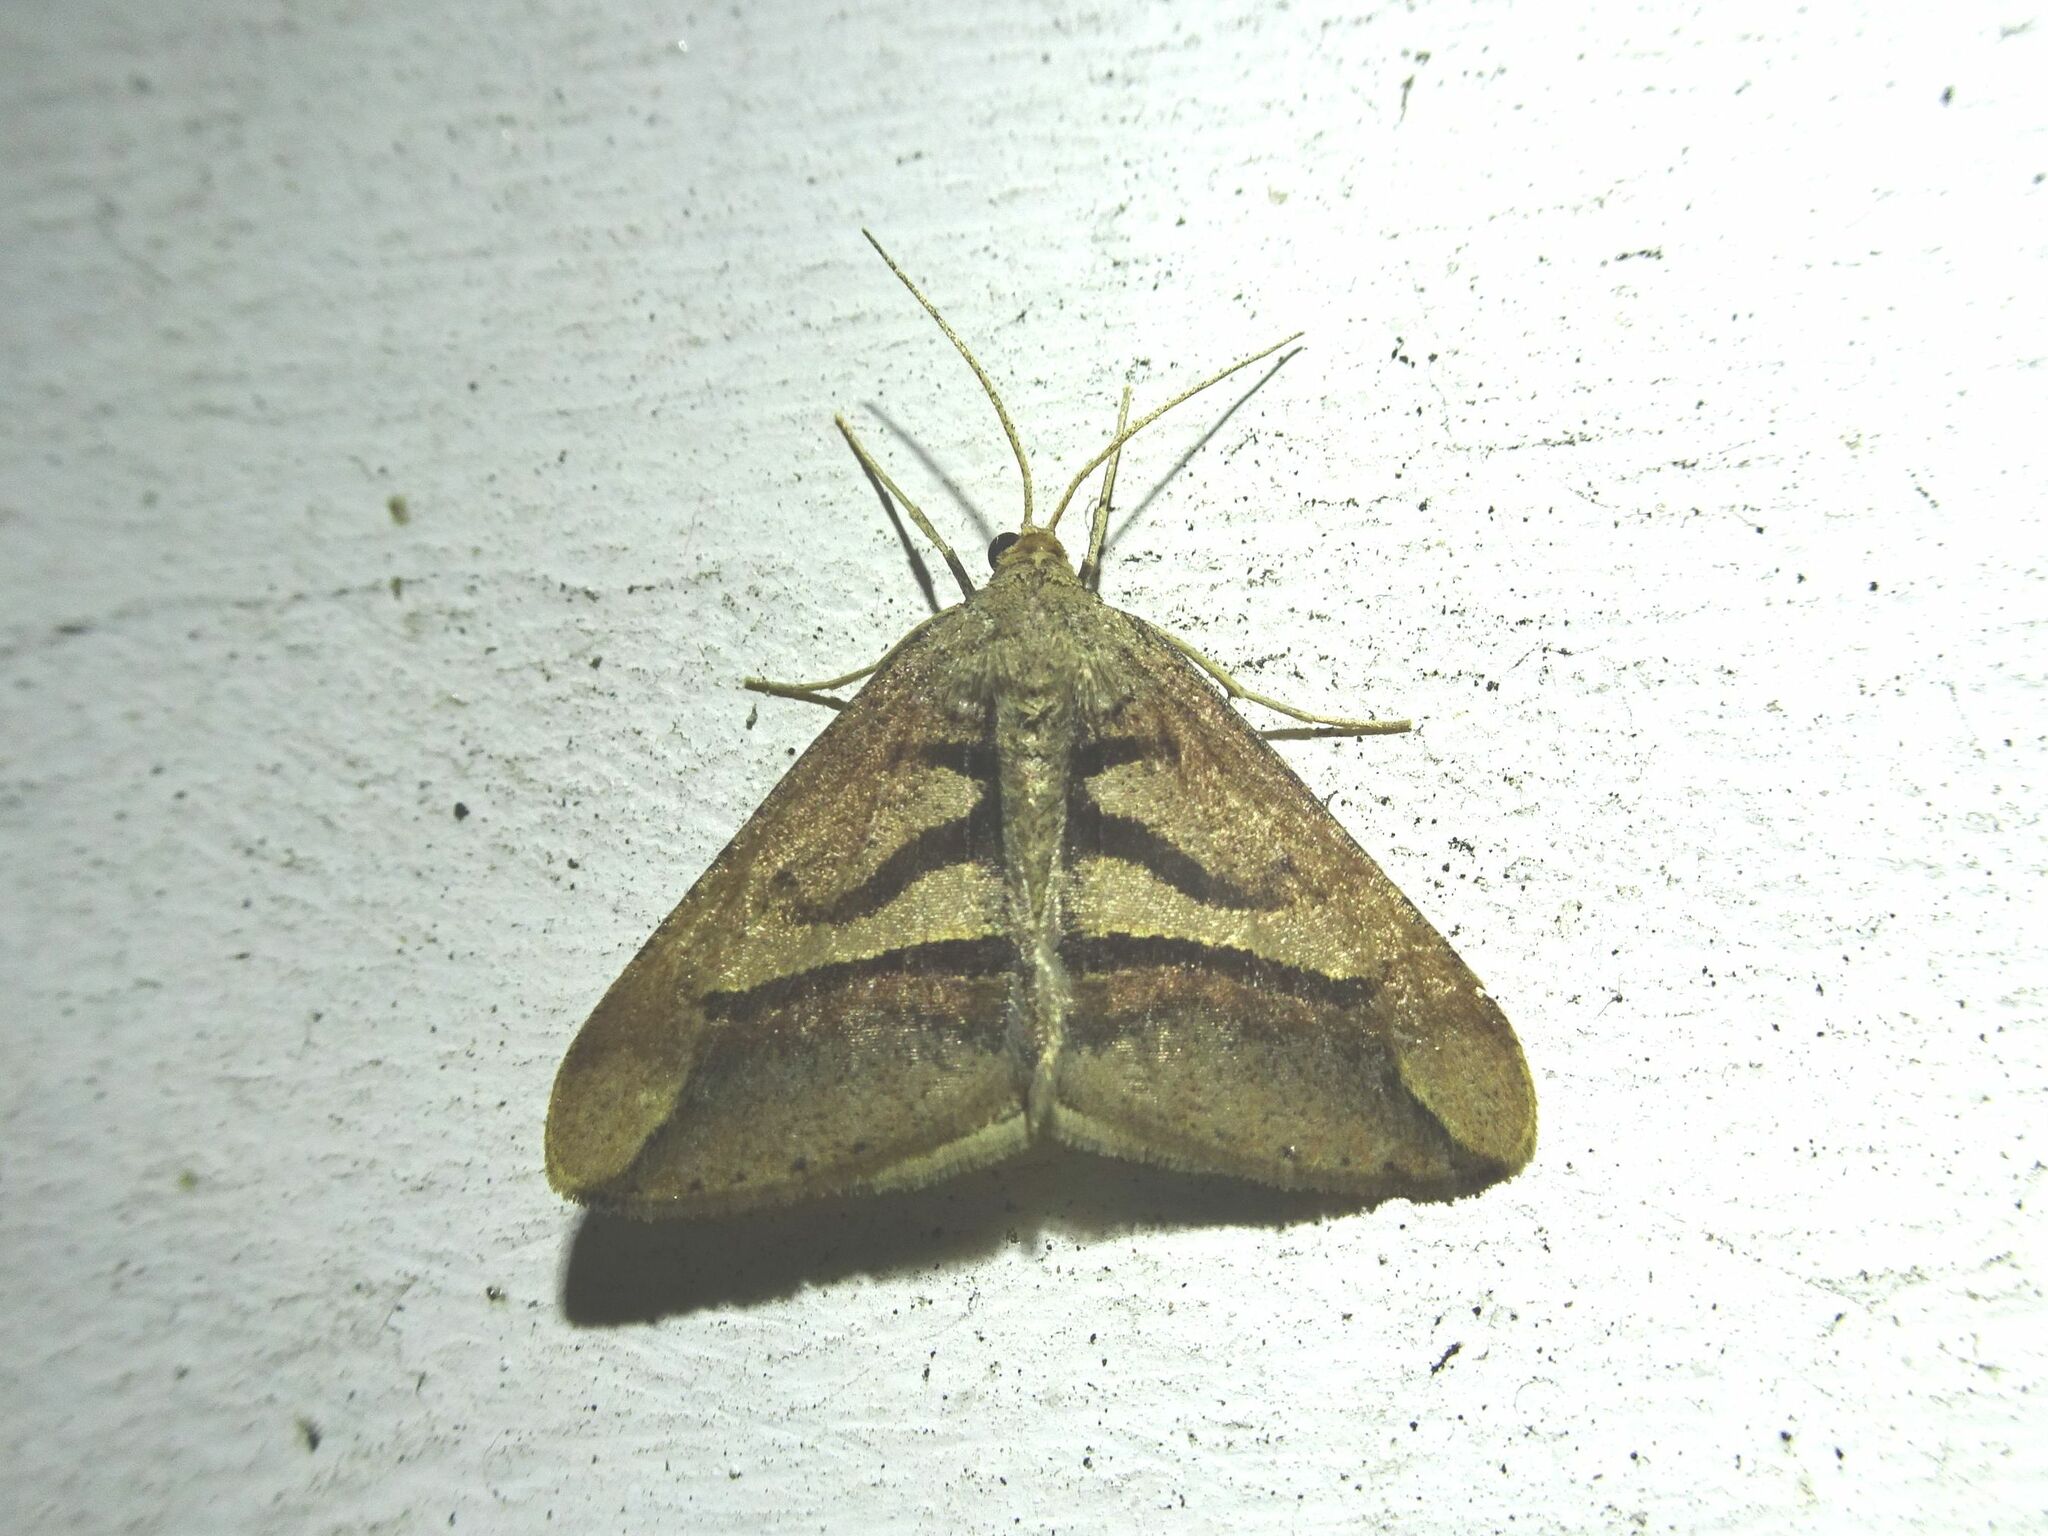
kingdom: Animalia
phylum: Arthropoda
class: Insecta
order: Lepidoptera
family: Geometridae
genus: Chiasmia
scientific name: Chiasmia observata
